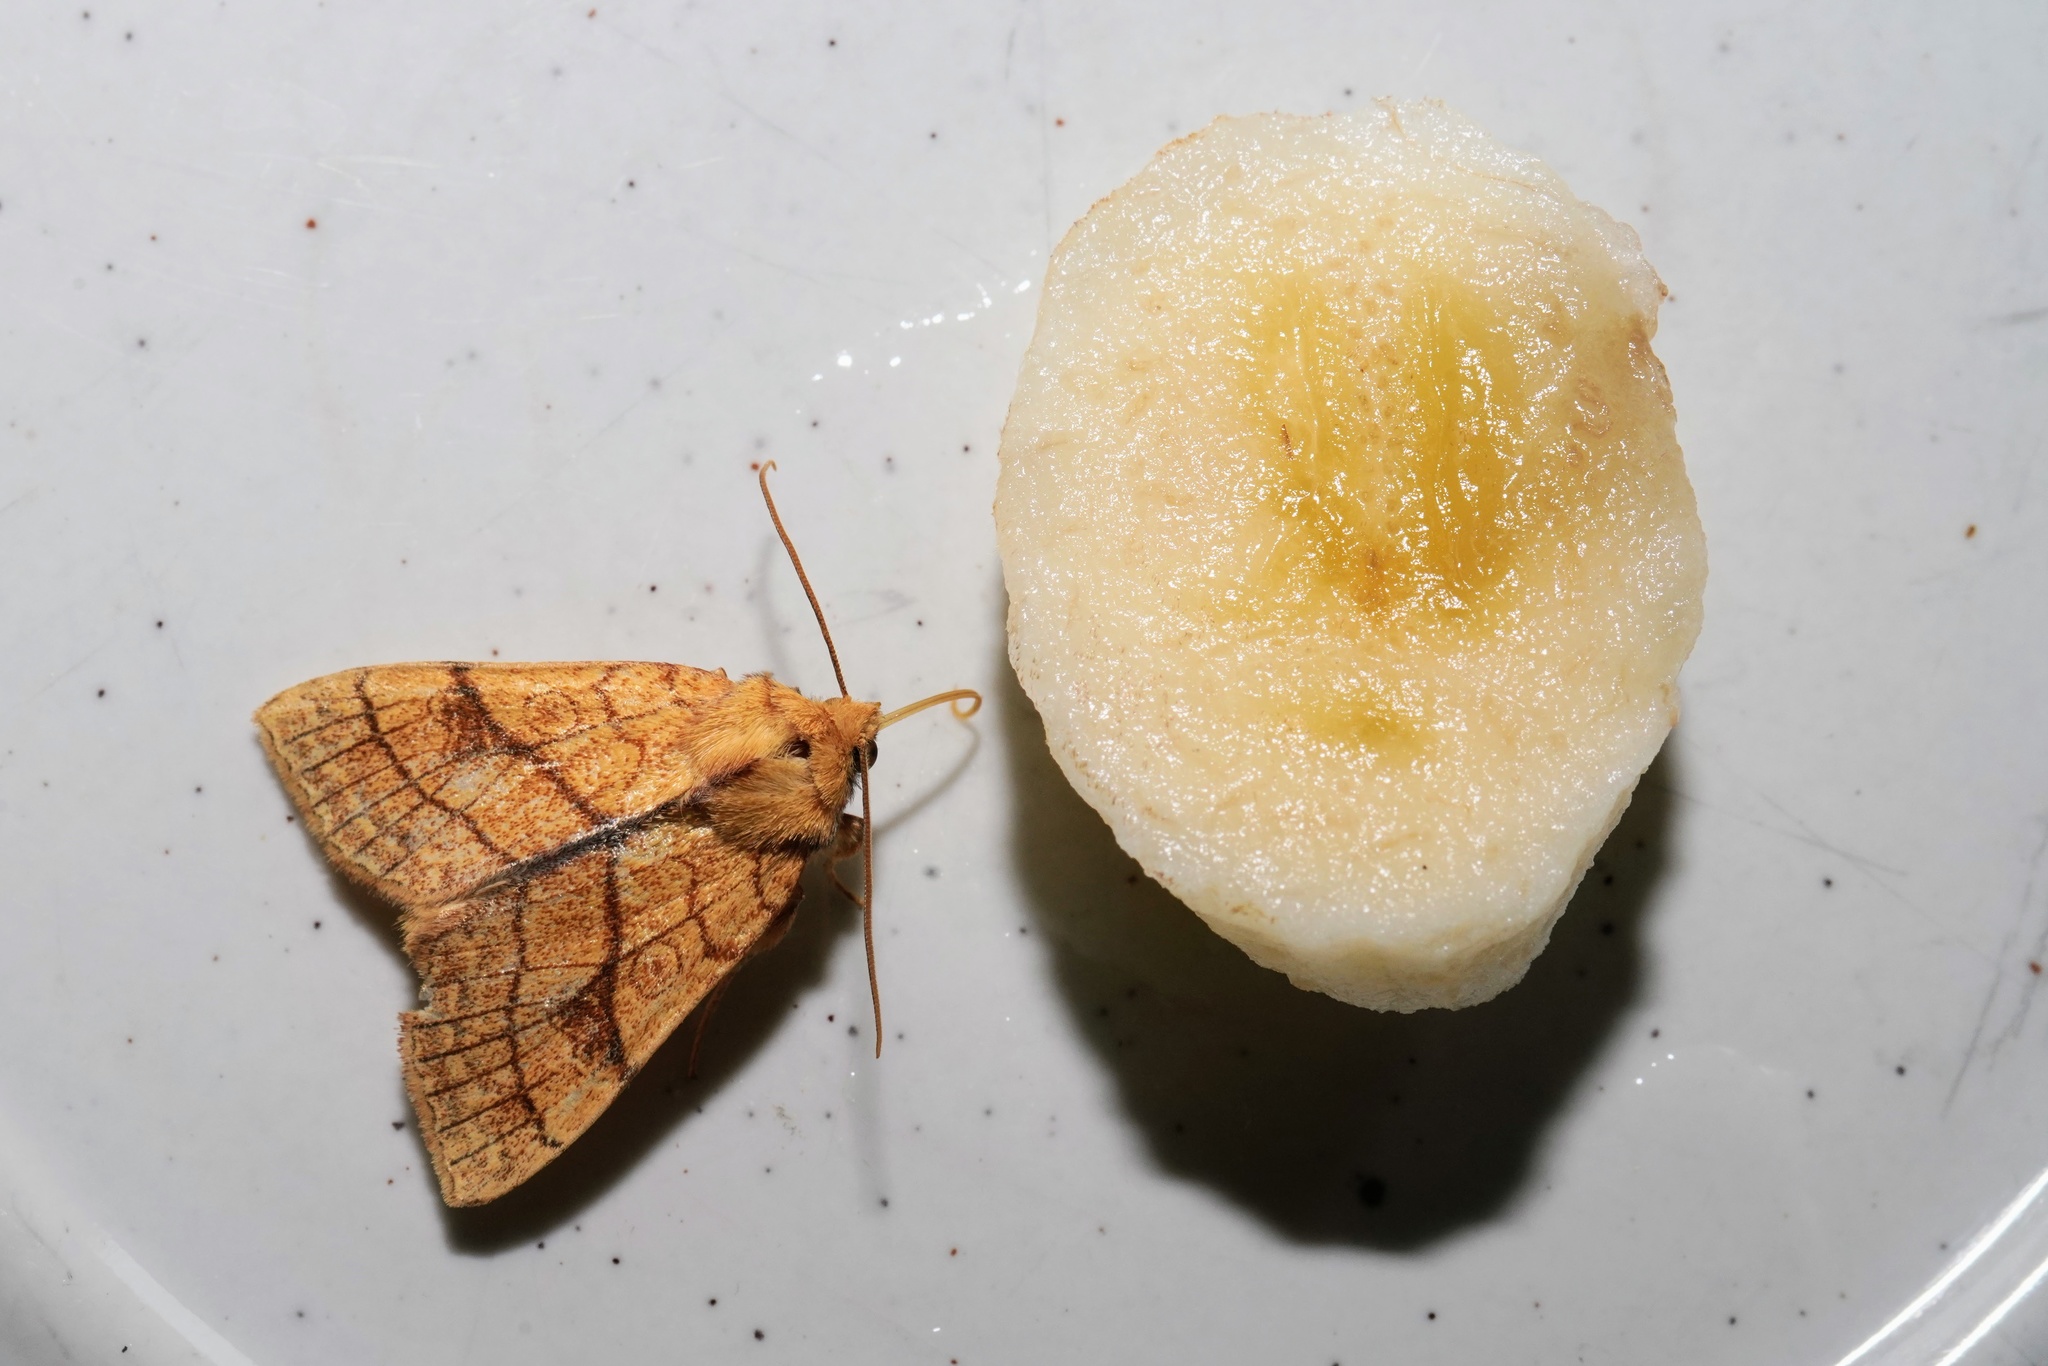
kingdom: Animalia
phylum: Arthropoda
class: Insecta
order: Lepidoptera
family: Noctuidae
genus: Tiliacea
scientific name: Tiliacea citrago
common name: Orange sallow
